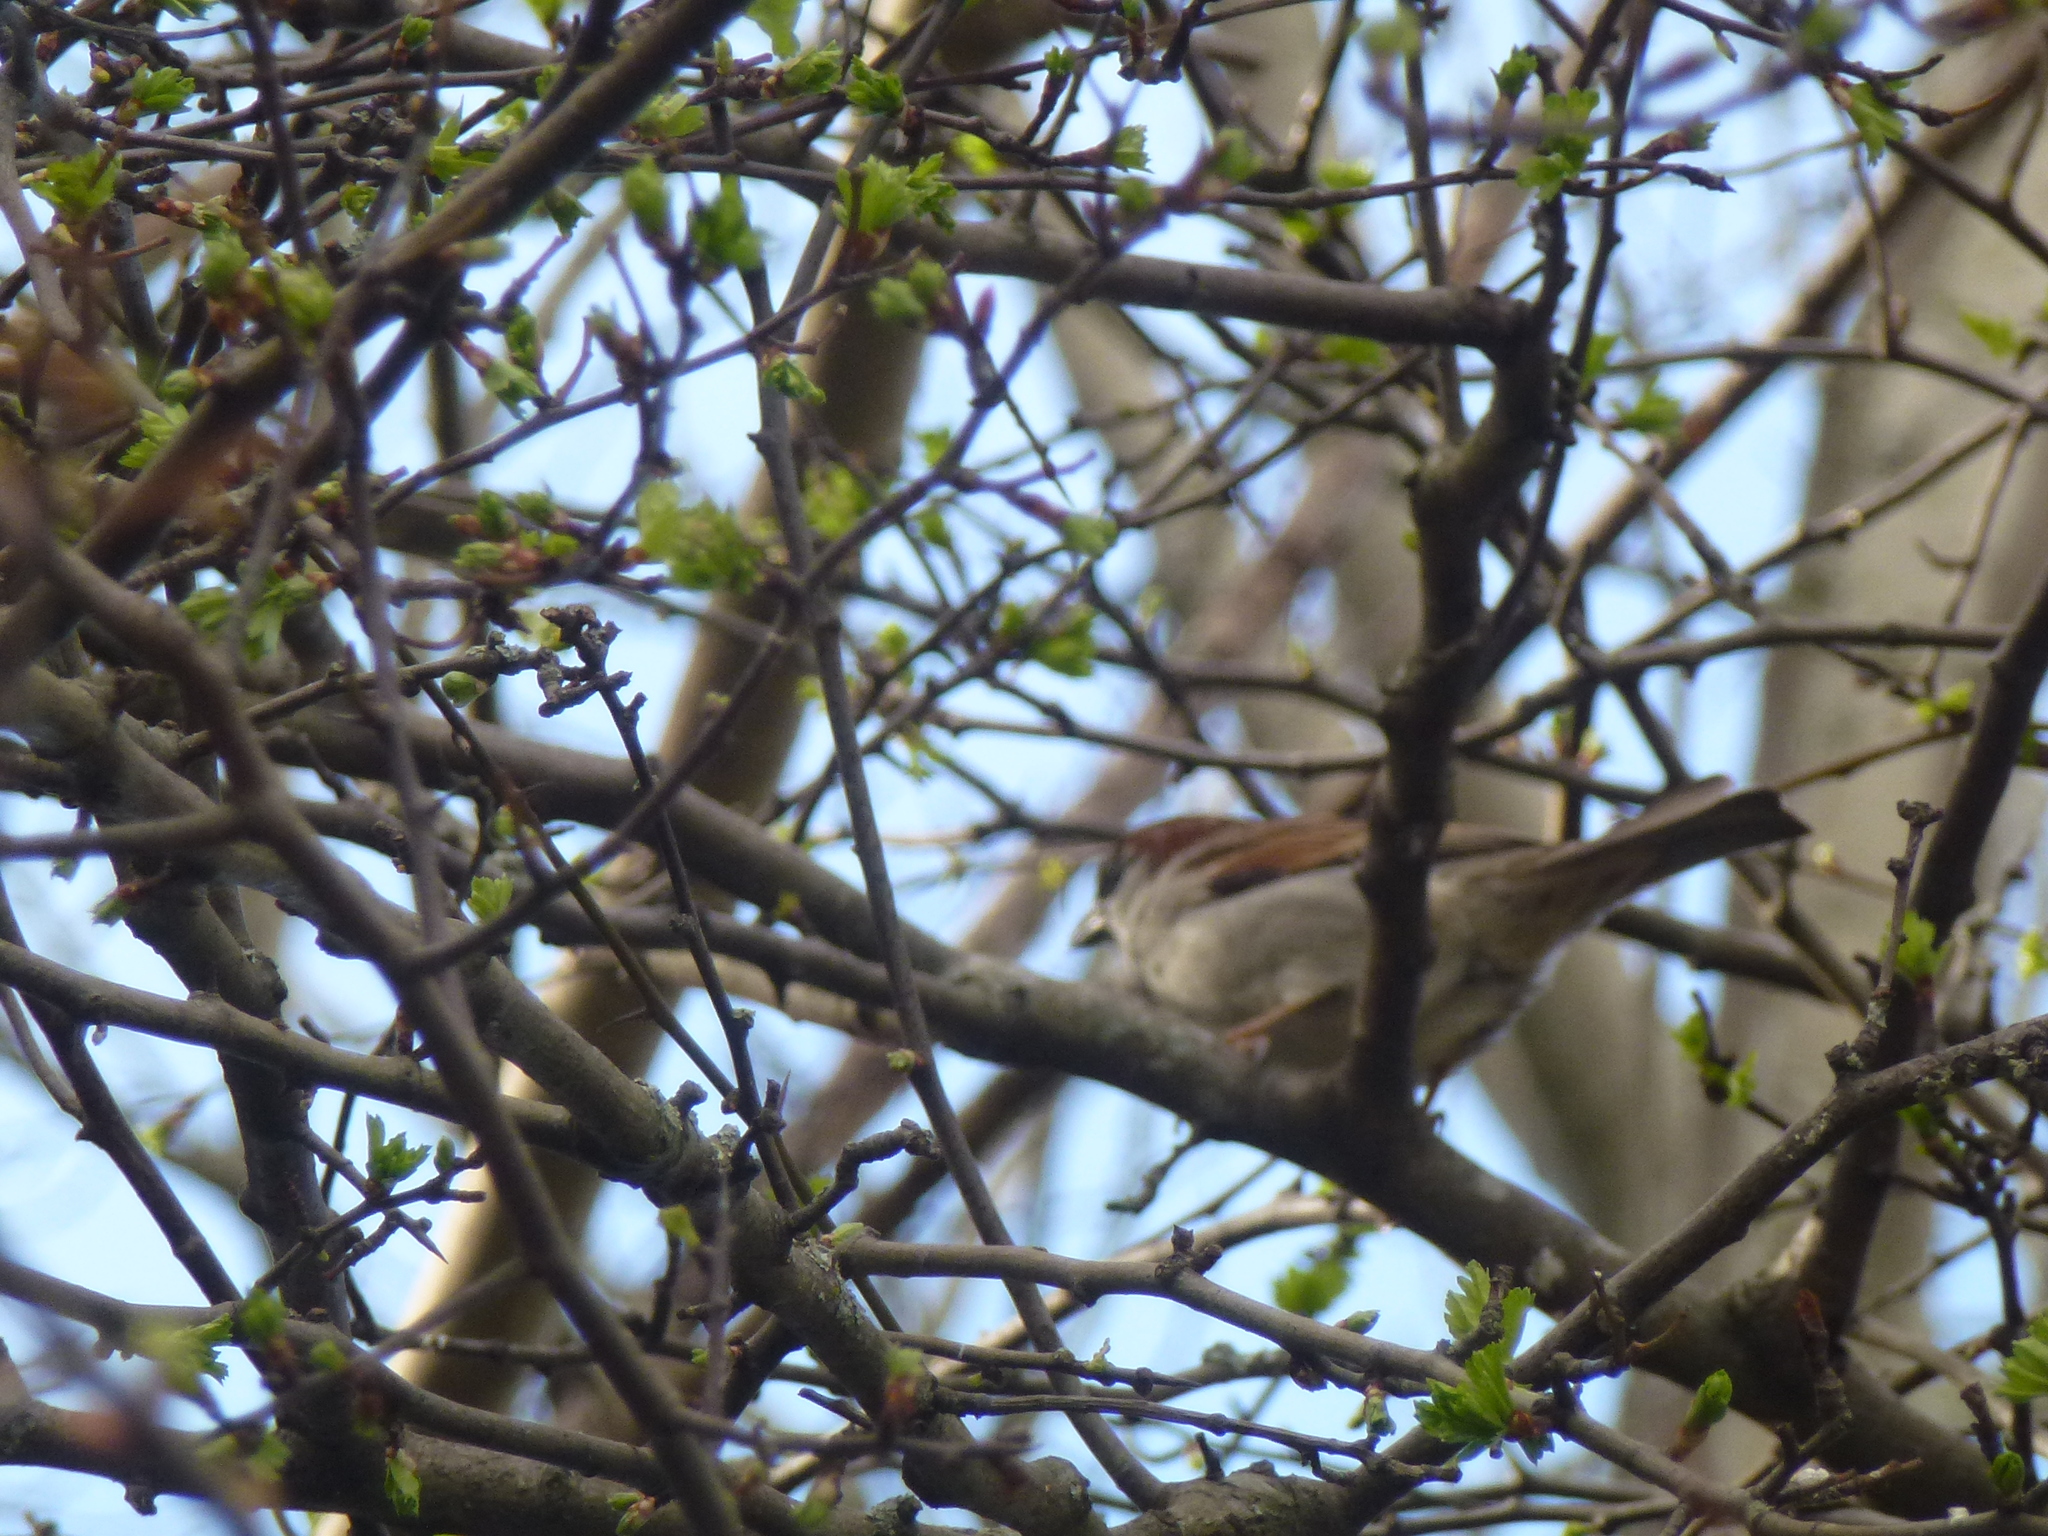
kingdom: Animalia
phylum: Chordata
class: Aves
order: Passeriformes
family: Passeridae
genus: Passer
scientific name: Passer domesticus
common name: House sparrow
